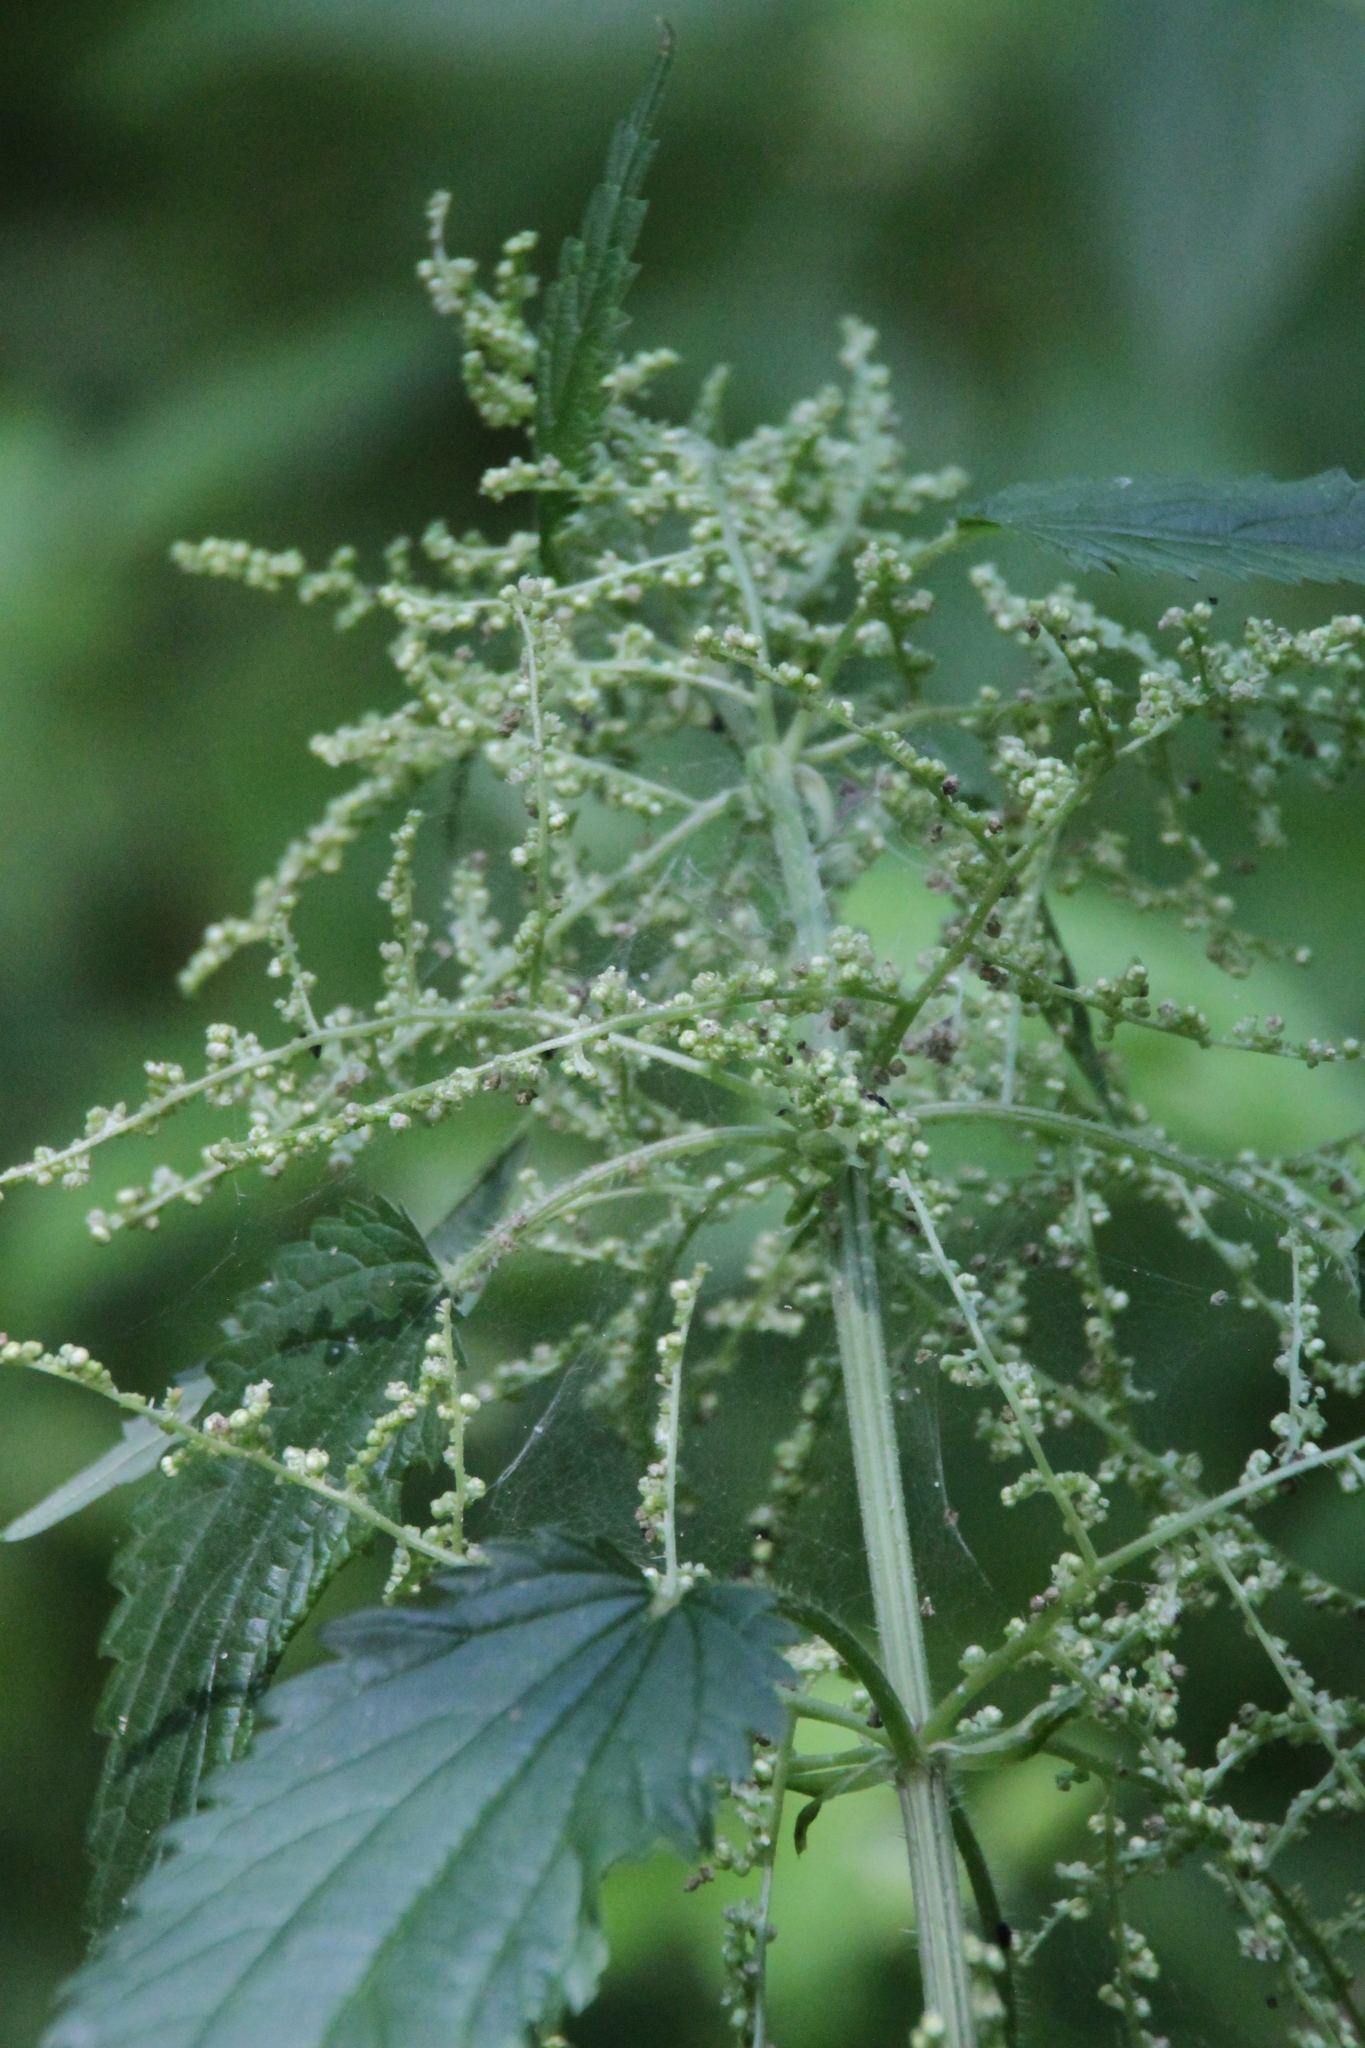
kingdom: Plantae
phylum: Tracheophyta
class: Magnoliopsida
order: Rosales
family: Urticaceae
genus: Urtica
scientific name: Urtica dioica
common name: Common nettle
